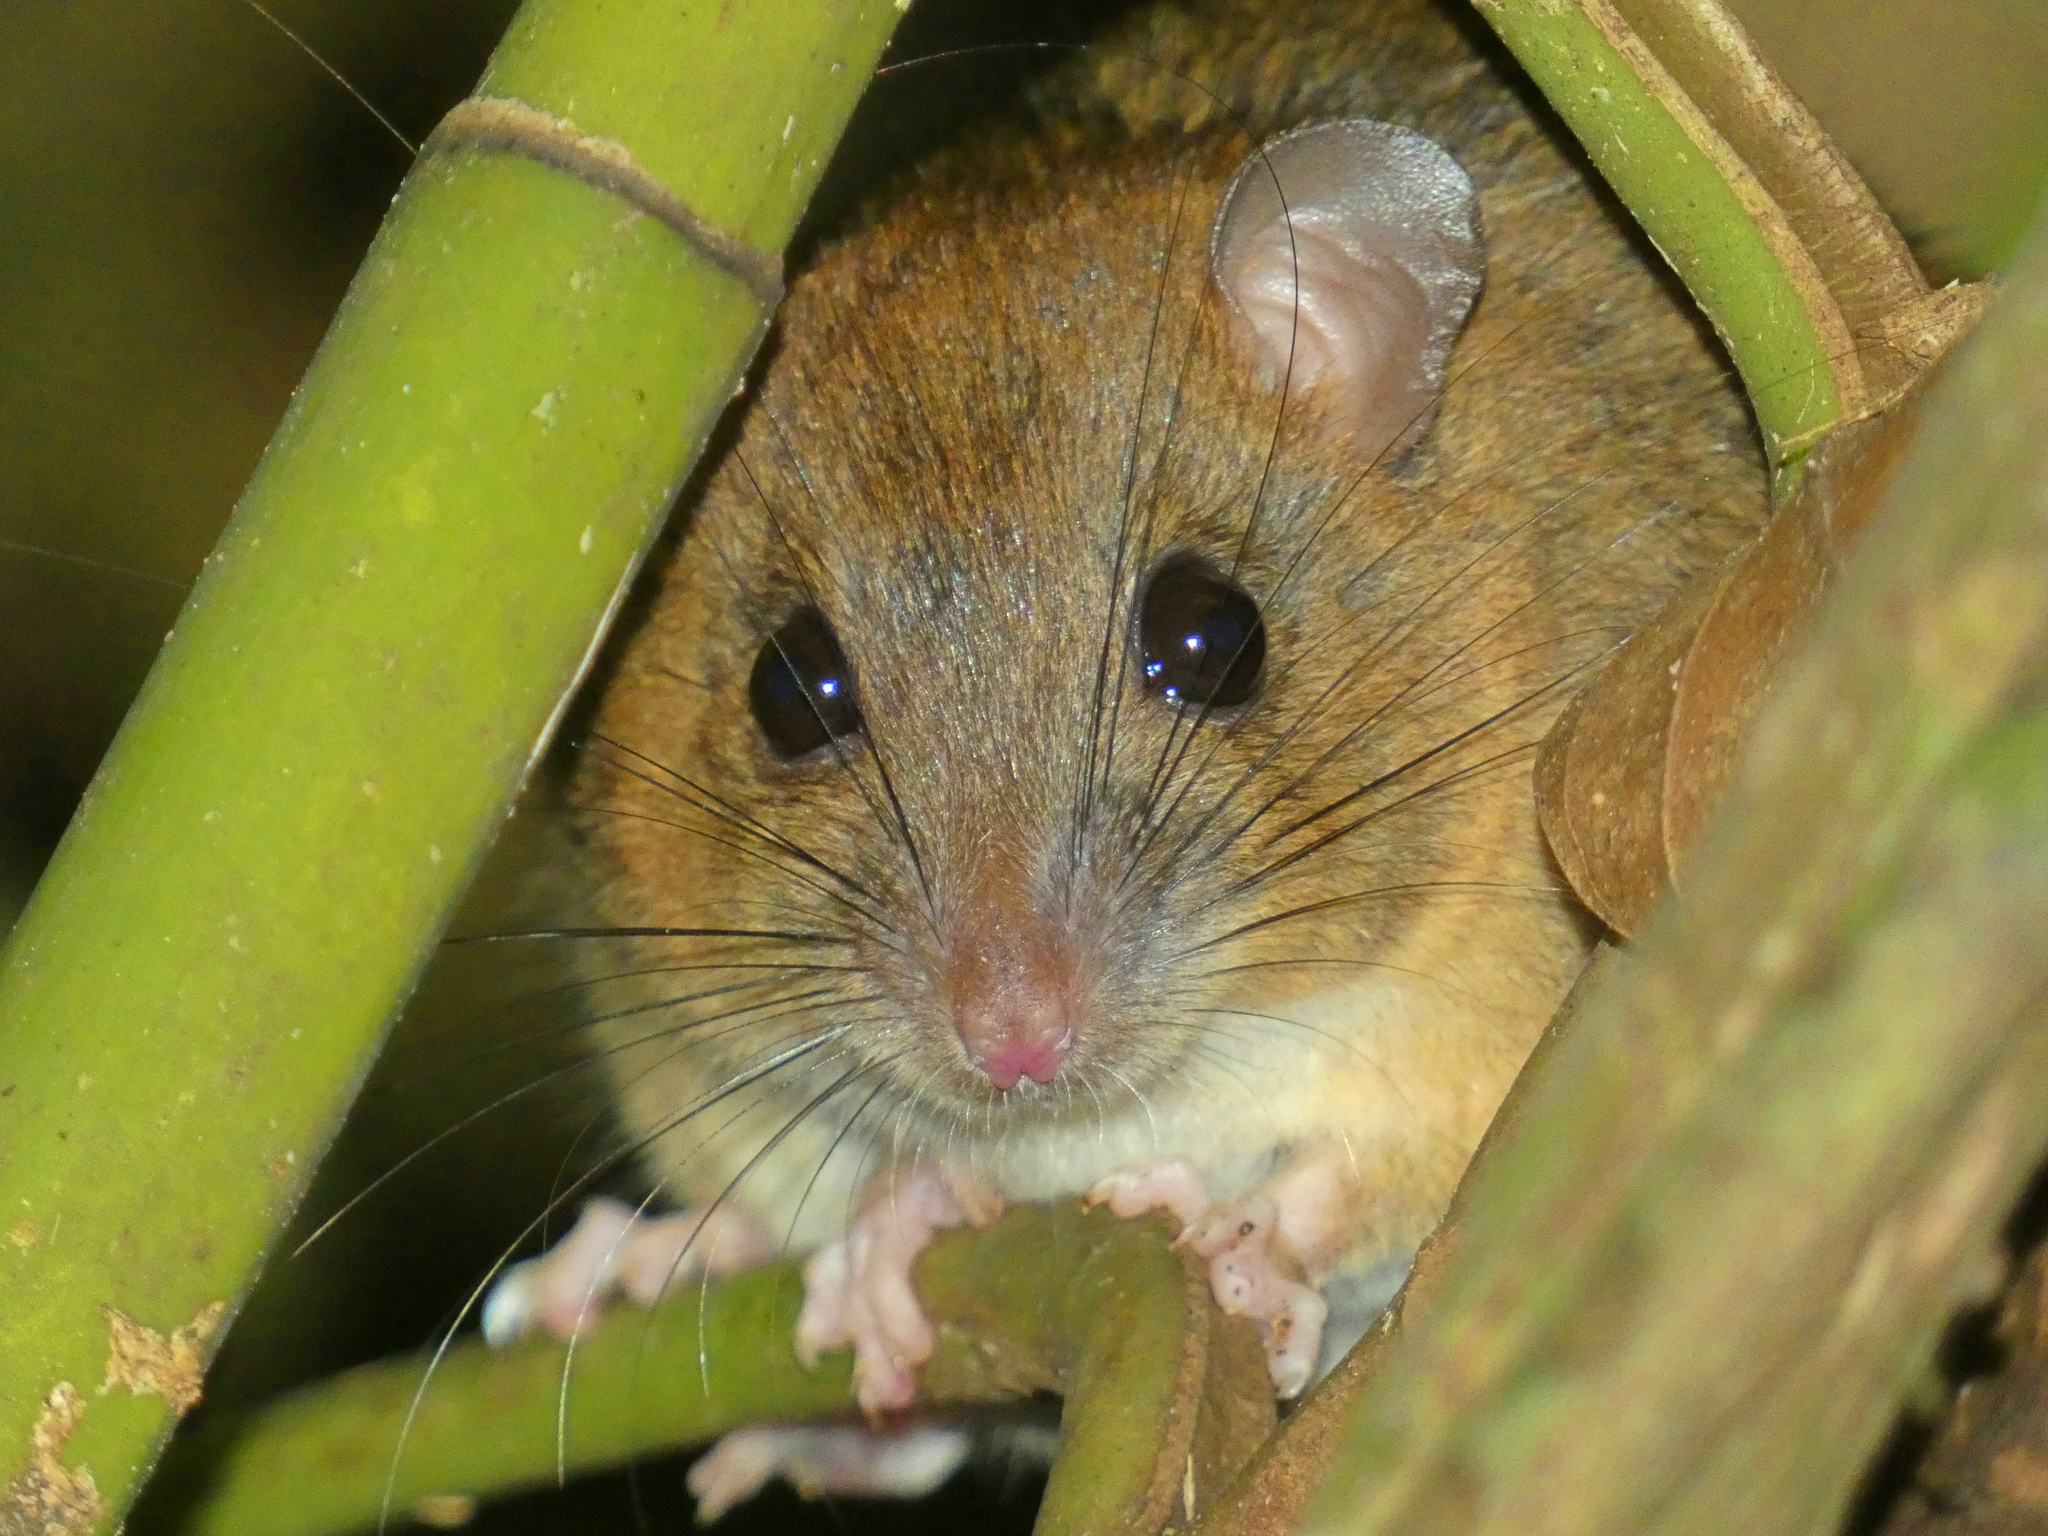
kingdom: Animalia
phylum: Chordata
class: Mammalia
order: Rodentia
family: Muridae
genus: Melomys
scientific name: Melomys cervinipes
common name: Fawn-footed melomys
